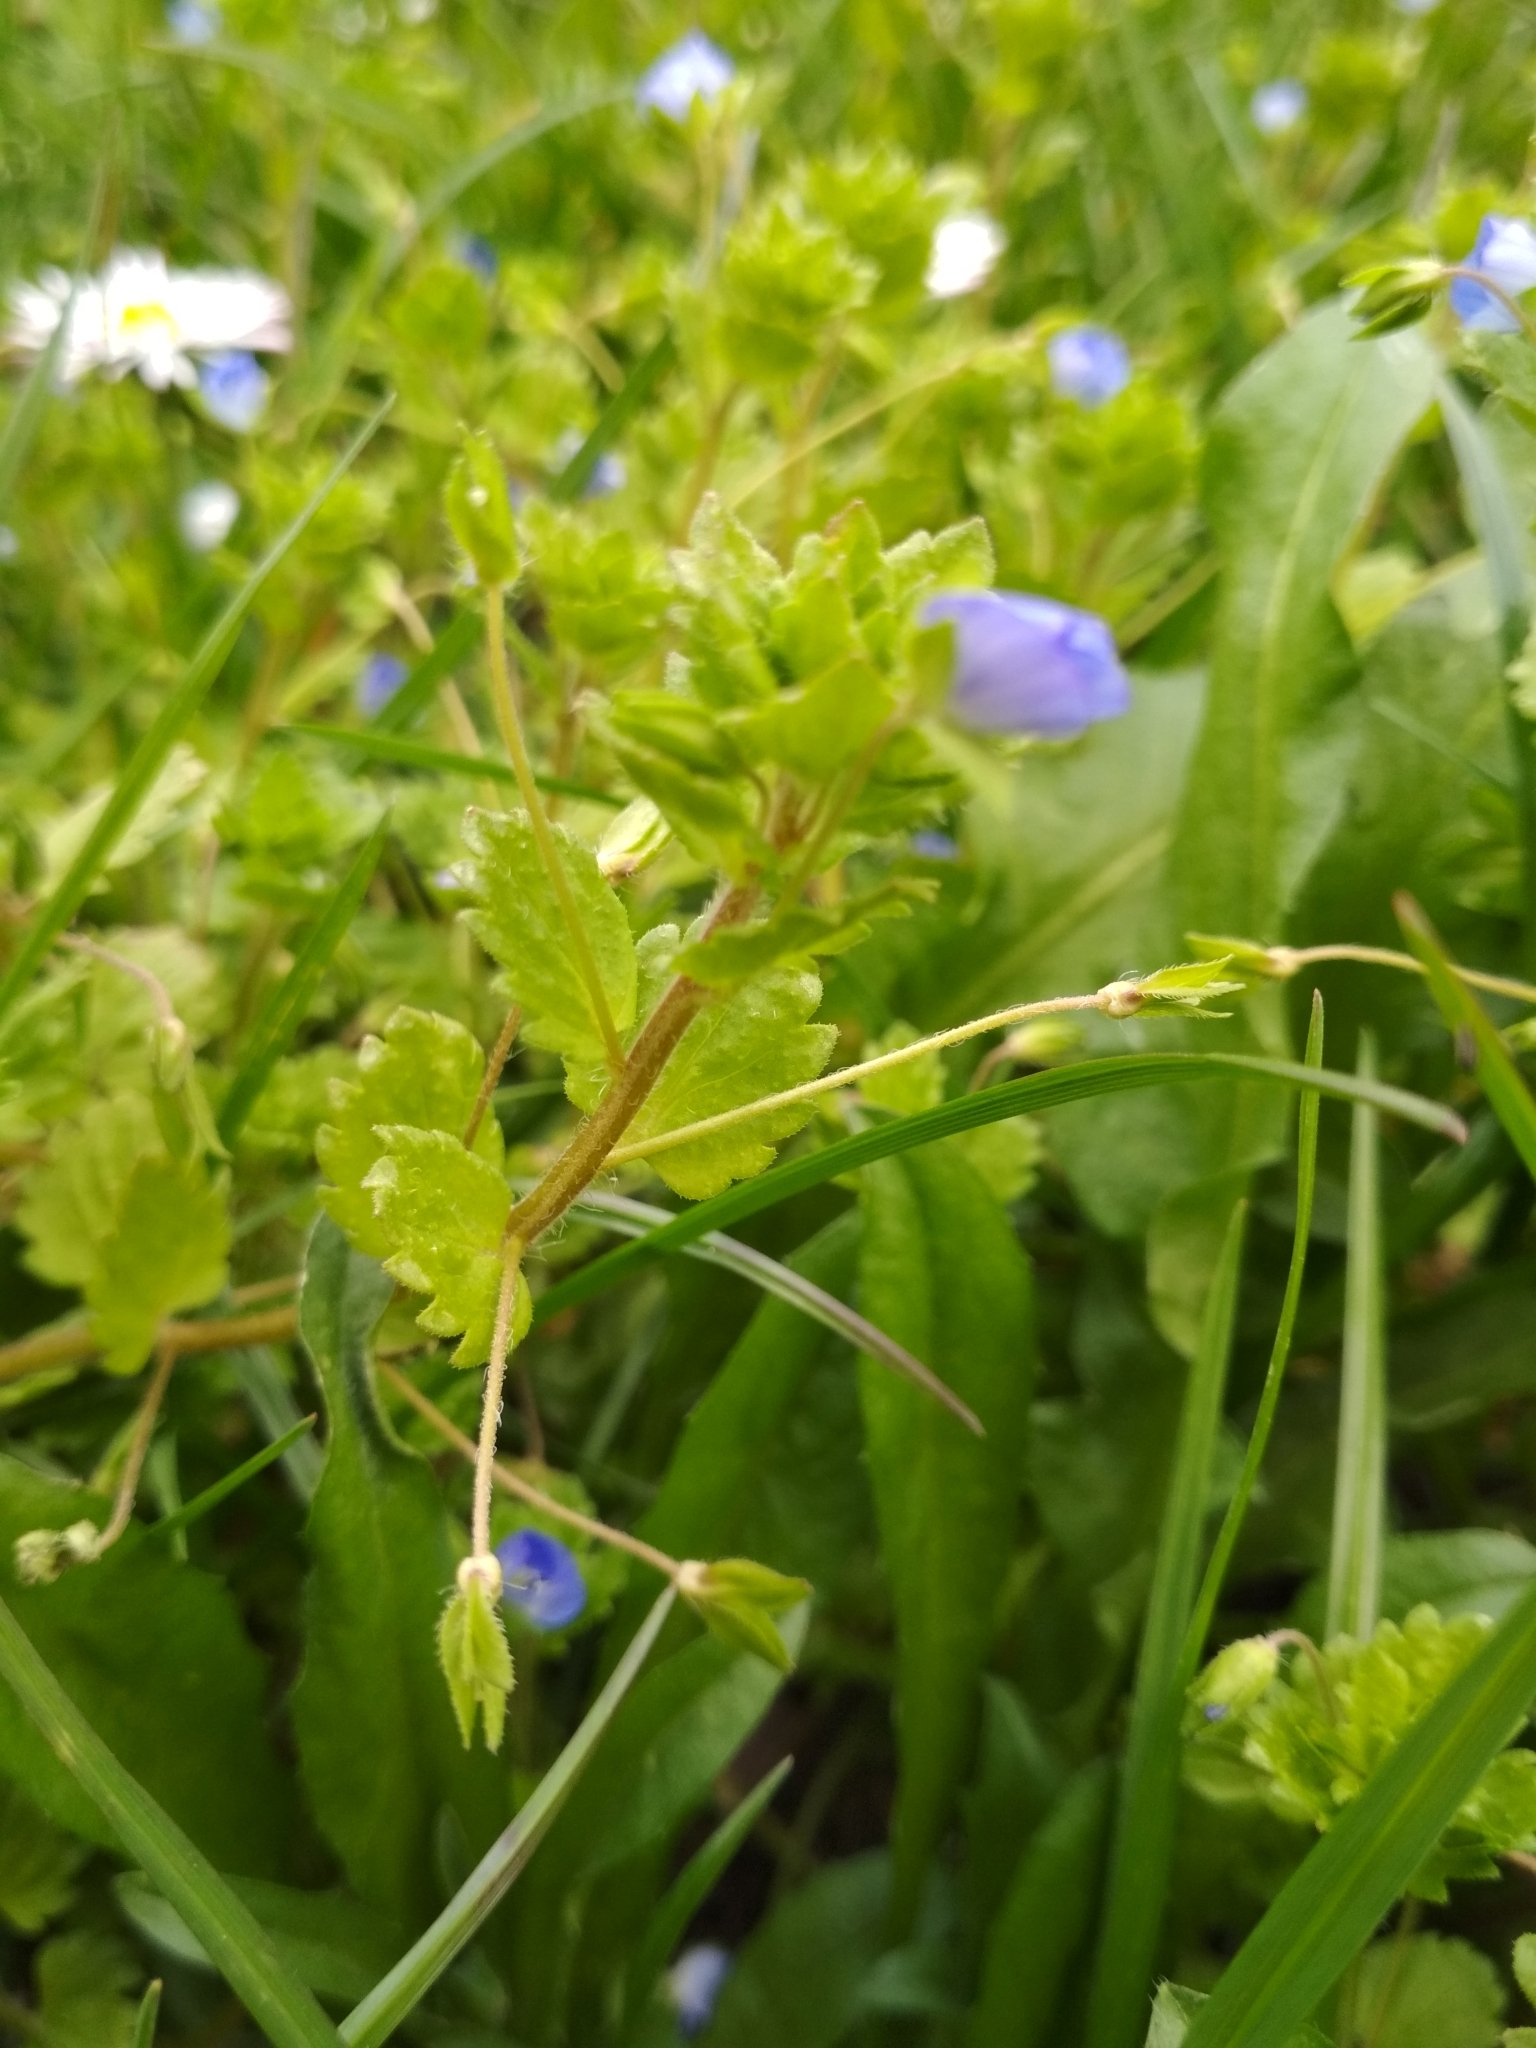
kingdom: Plantae
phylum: Tracheophyta
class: Magnoliopsida
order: Lamiales
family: Plantaginaceae
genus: Veronica
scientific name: Veronica persica
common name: Common field-speedwell
